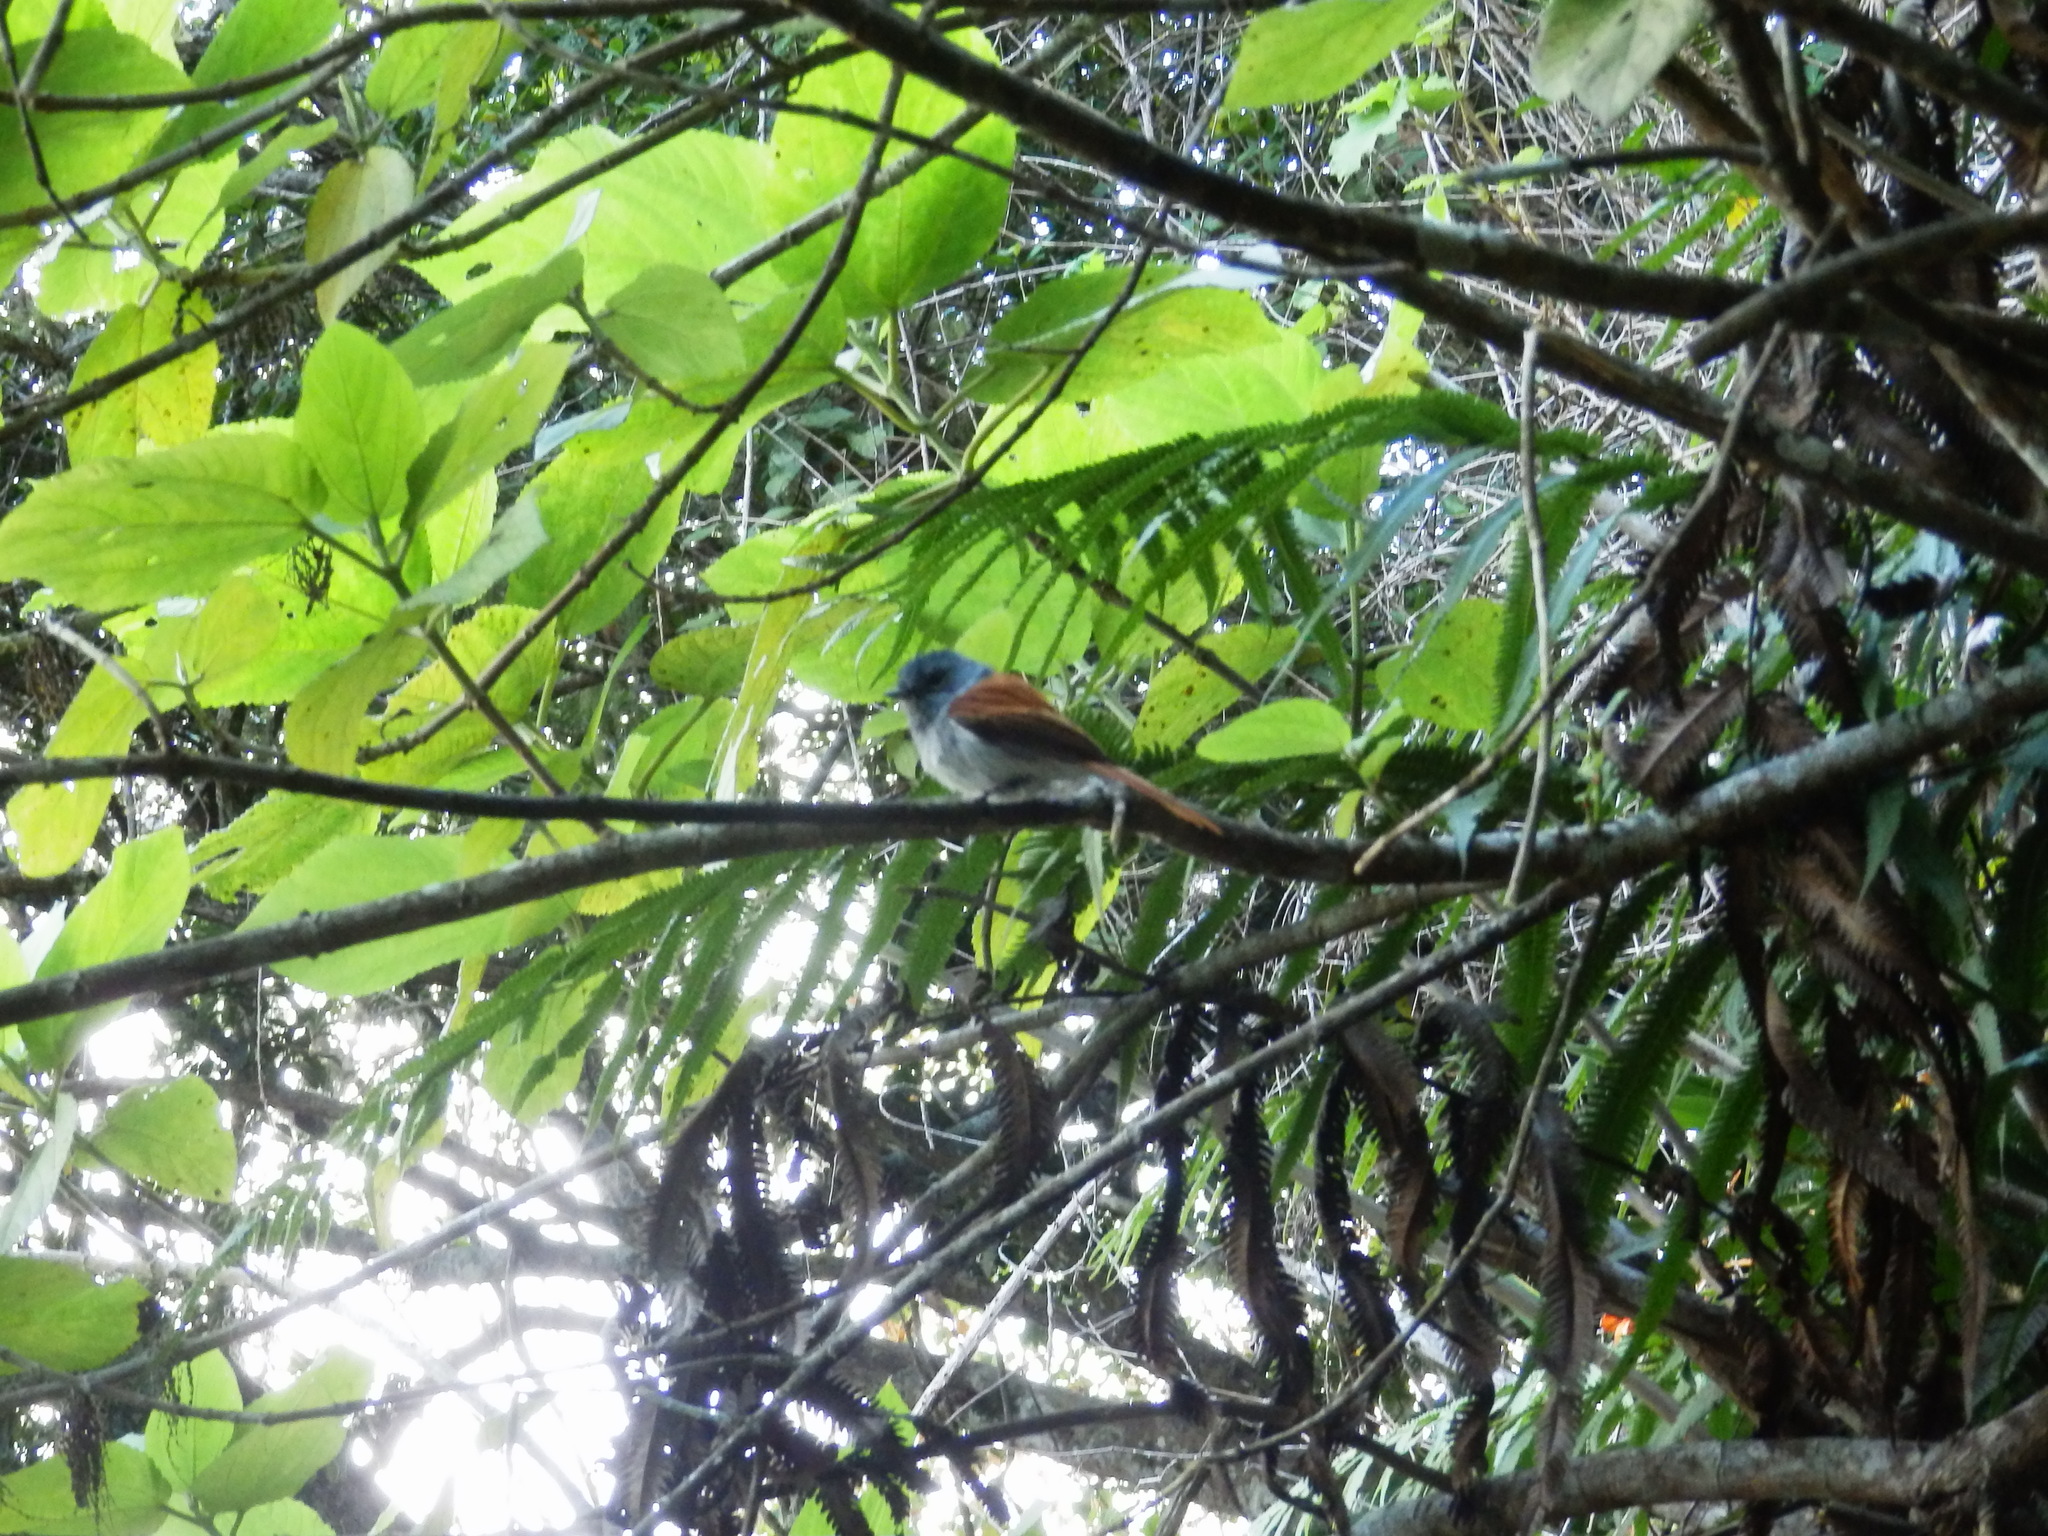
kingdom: Animalia
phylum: Chordata
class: Aves
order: Passeriformes
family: Monarchidae
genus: Terpsiphone
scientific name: Terpsiphone bourbonnensis
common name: Mascarene paradise flycatcher
